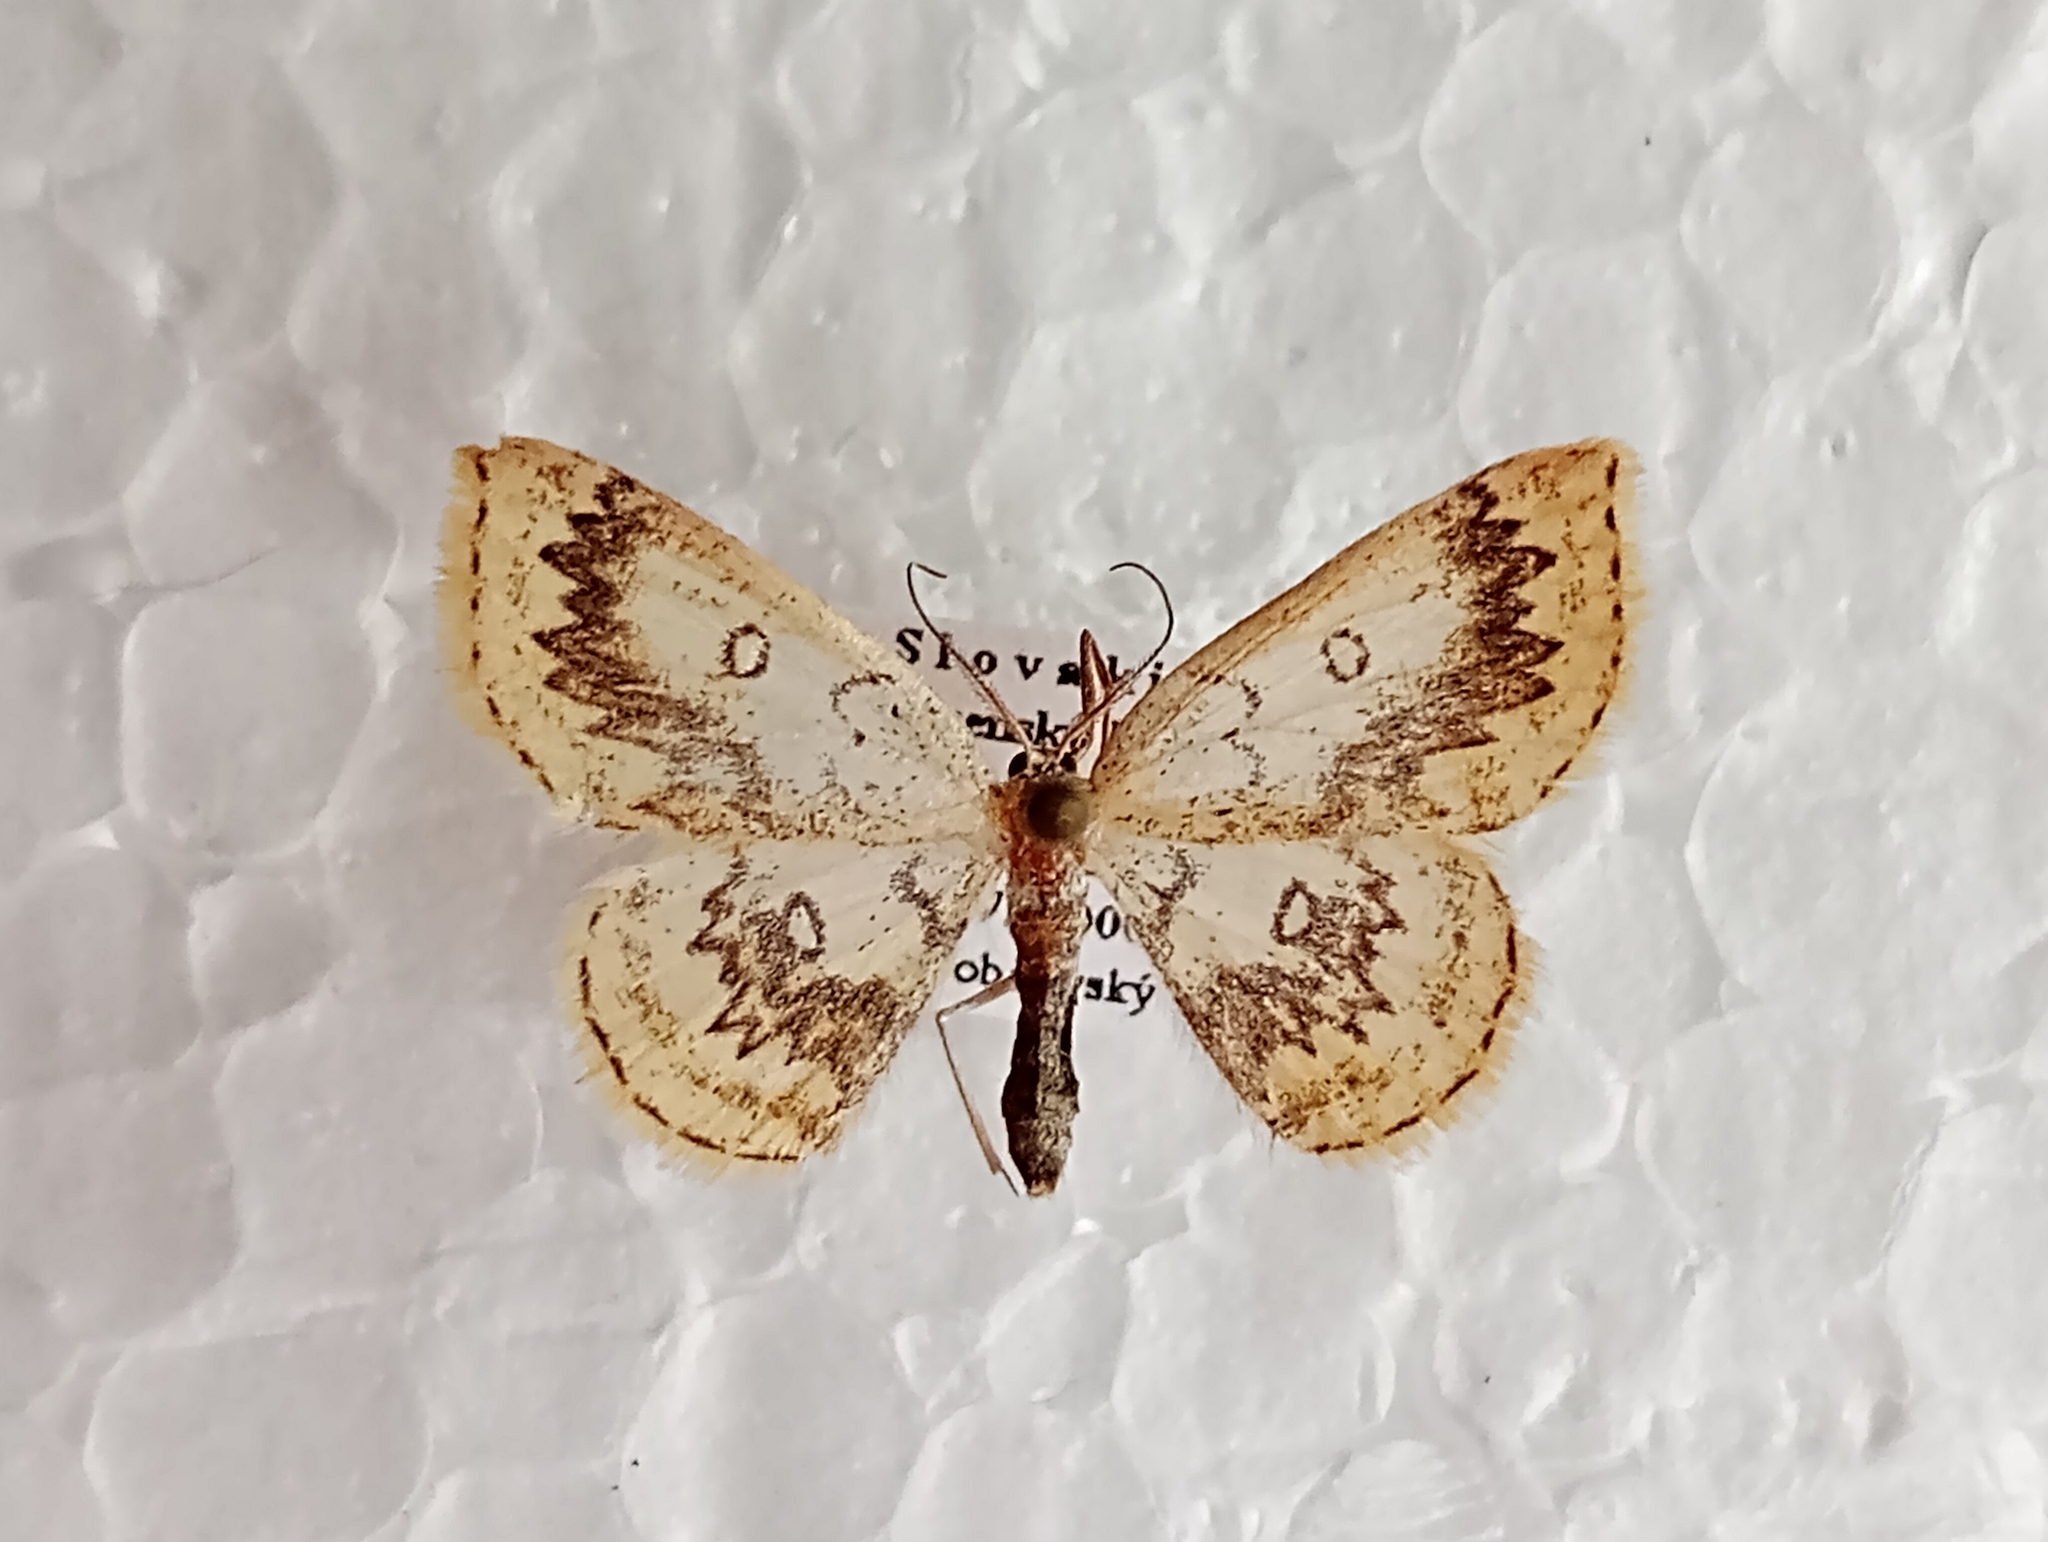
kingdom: Animalia
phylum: Arthropoda
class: Insecta
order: Lepidoptera
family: Geometridae
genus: Cyclophora
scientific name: Cyclophora annularia
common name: Mocha
